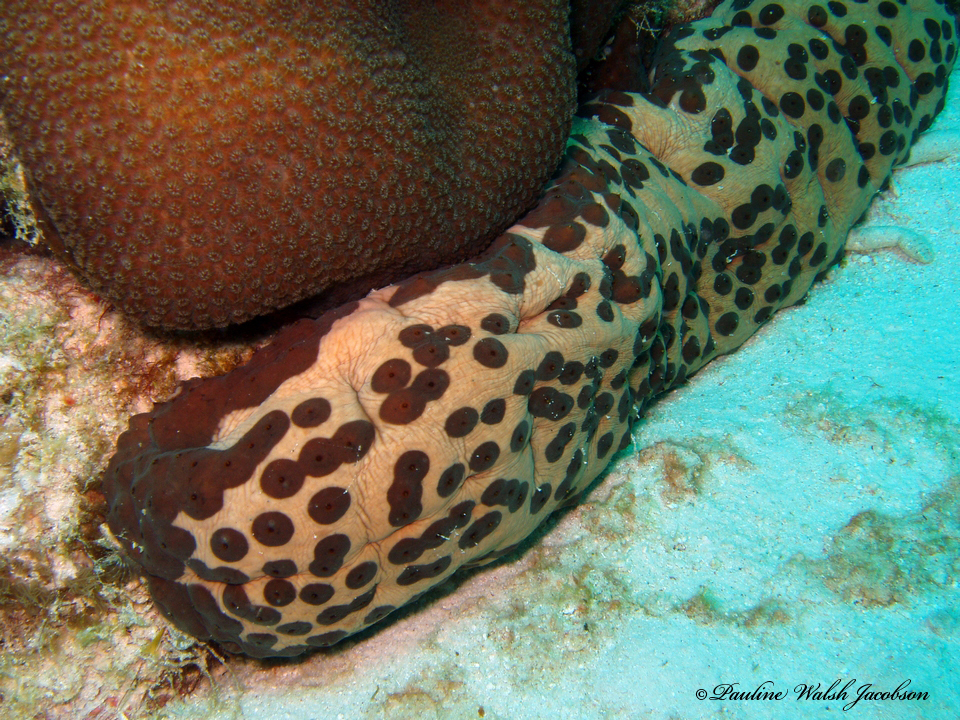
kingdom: Animalia
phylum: Echinodermata
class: Holothuroidea
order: Synallactida
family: Stichopodidae
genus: Isostichopus
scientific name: Isostichopus badionotus
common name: Chocolate chip cucumber
